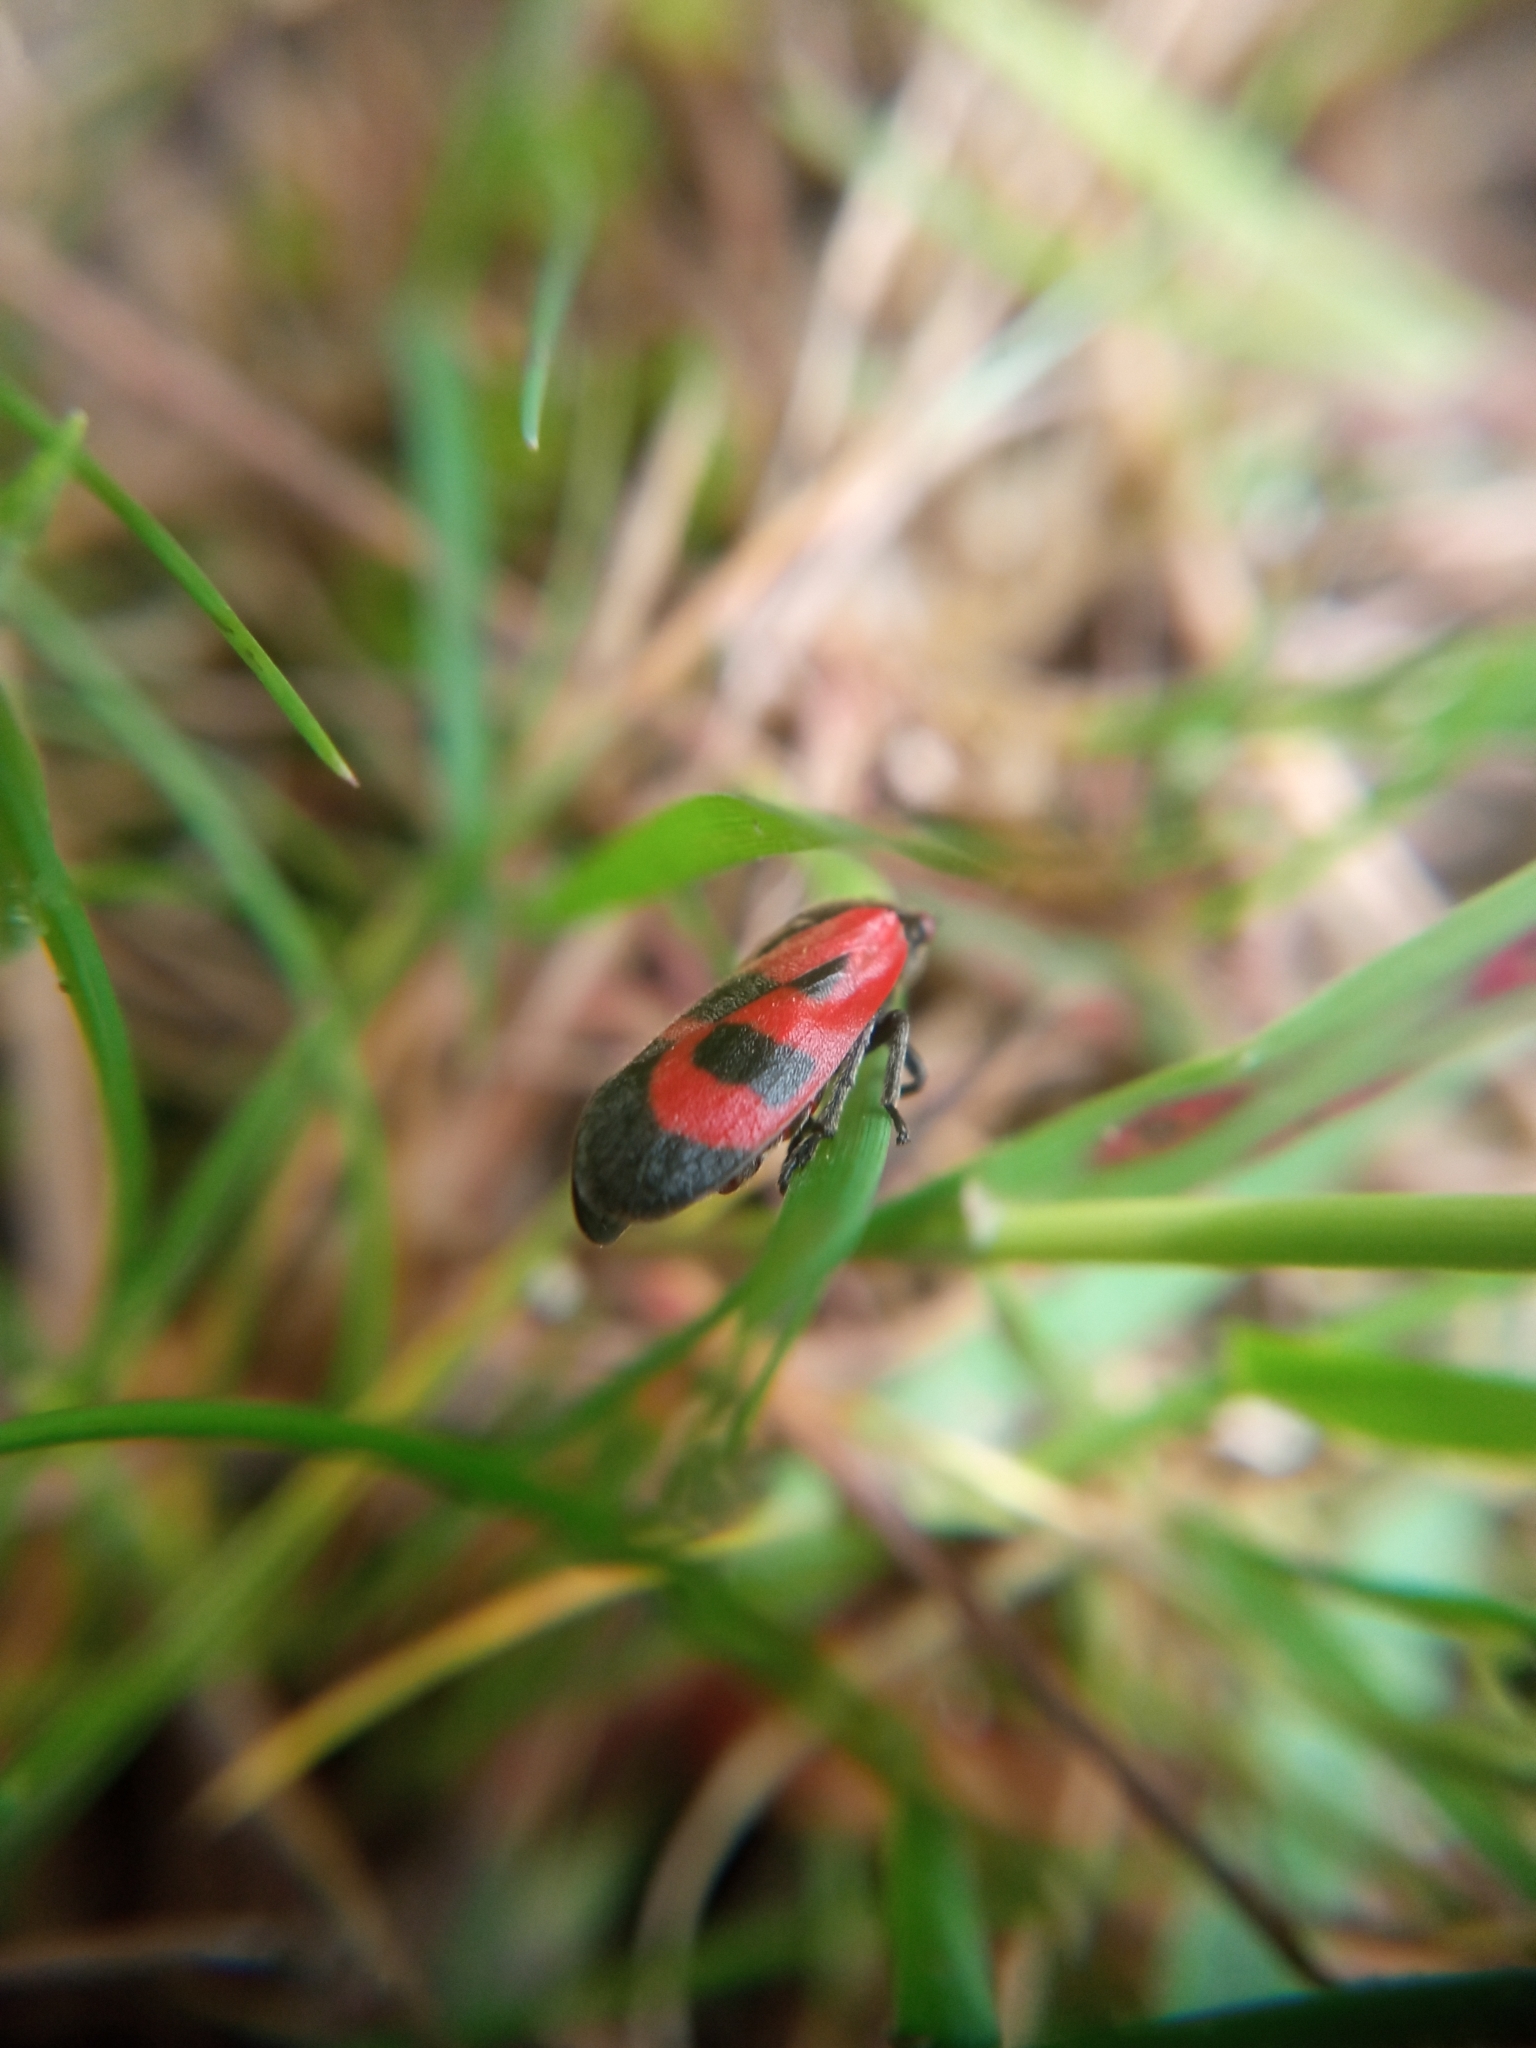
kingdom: Animalia
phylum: Arthropoda
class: Insecta
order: Hemiptera
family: Cercopidae
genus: Haematoloma
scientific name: Haematoloma dorsata
